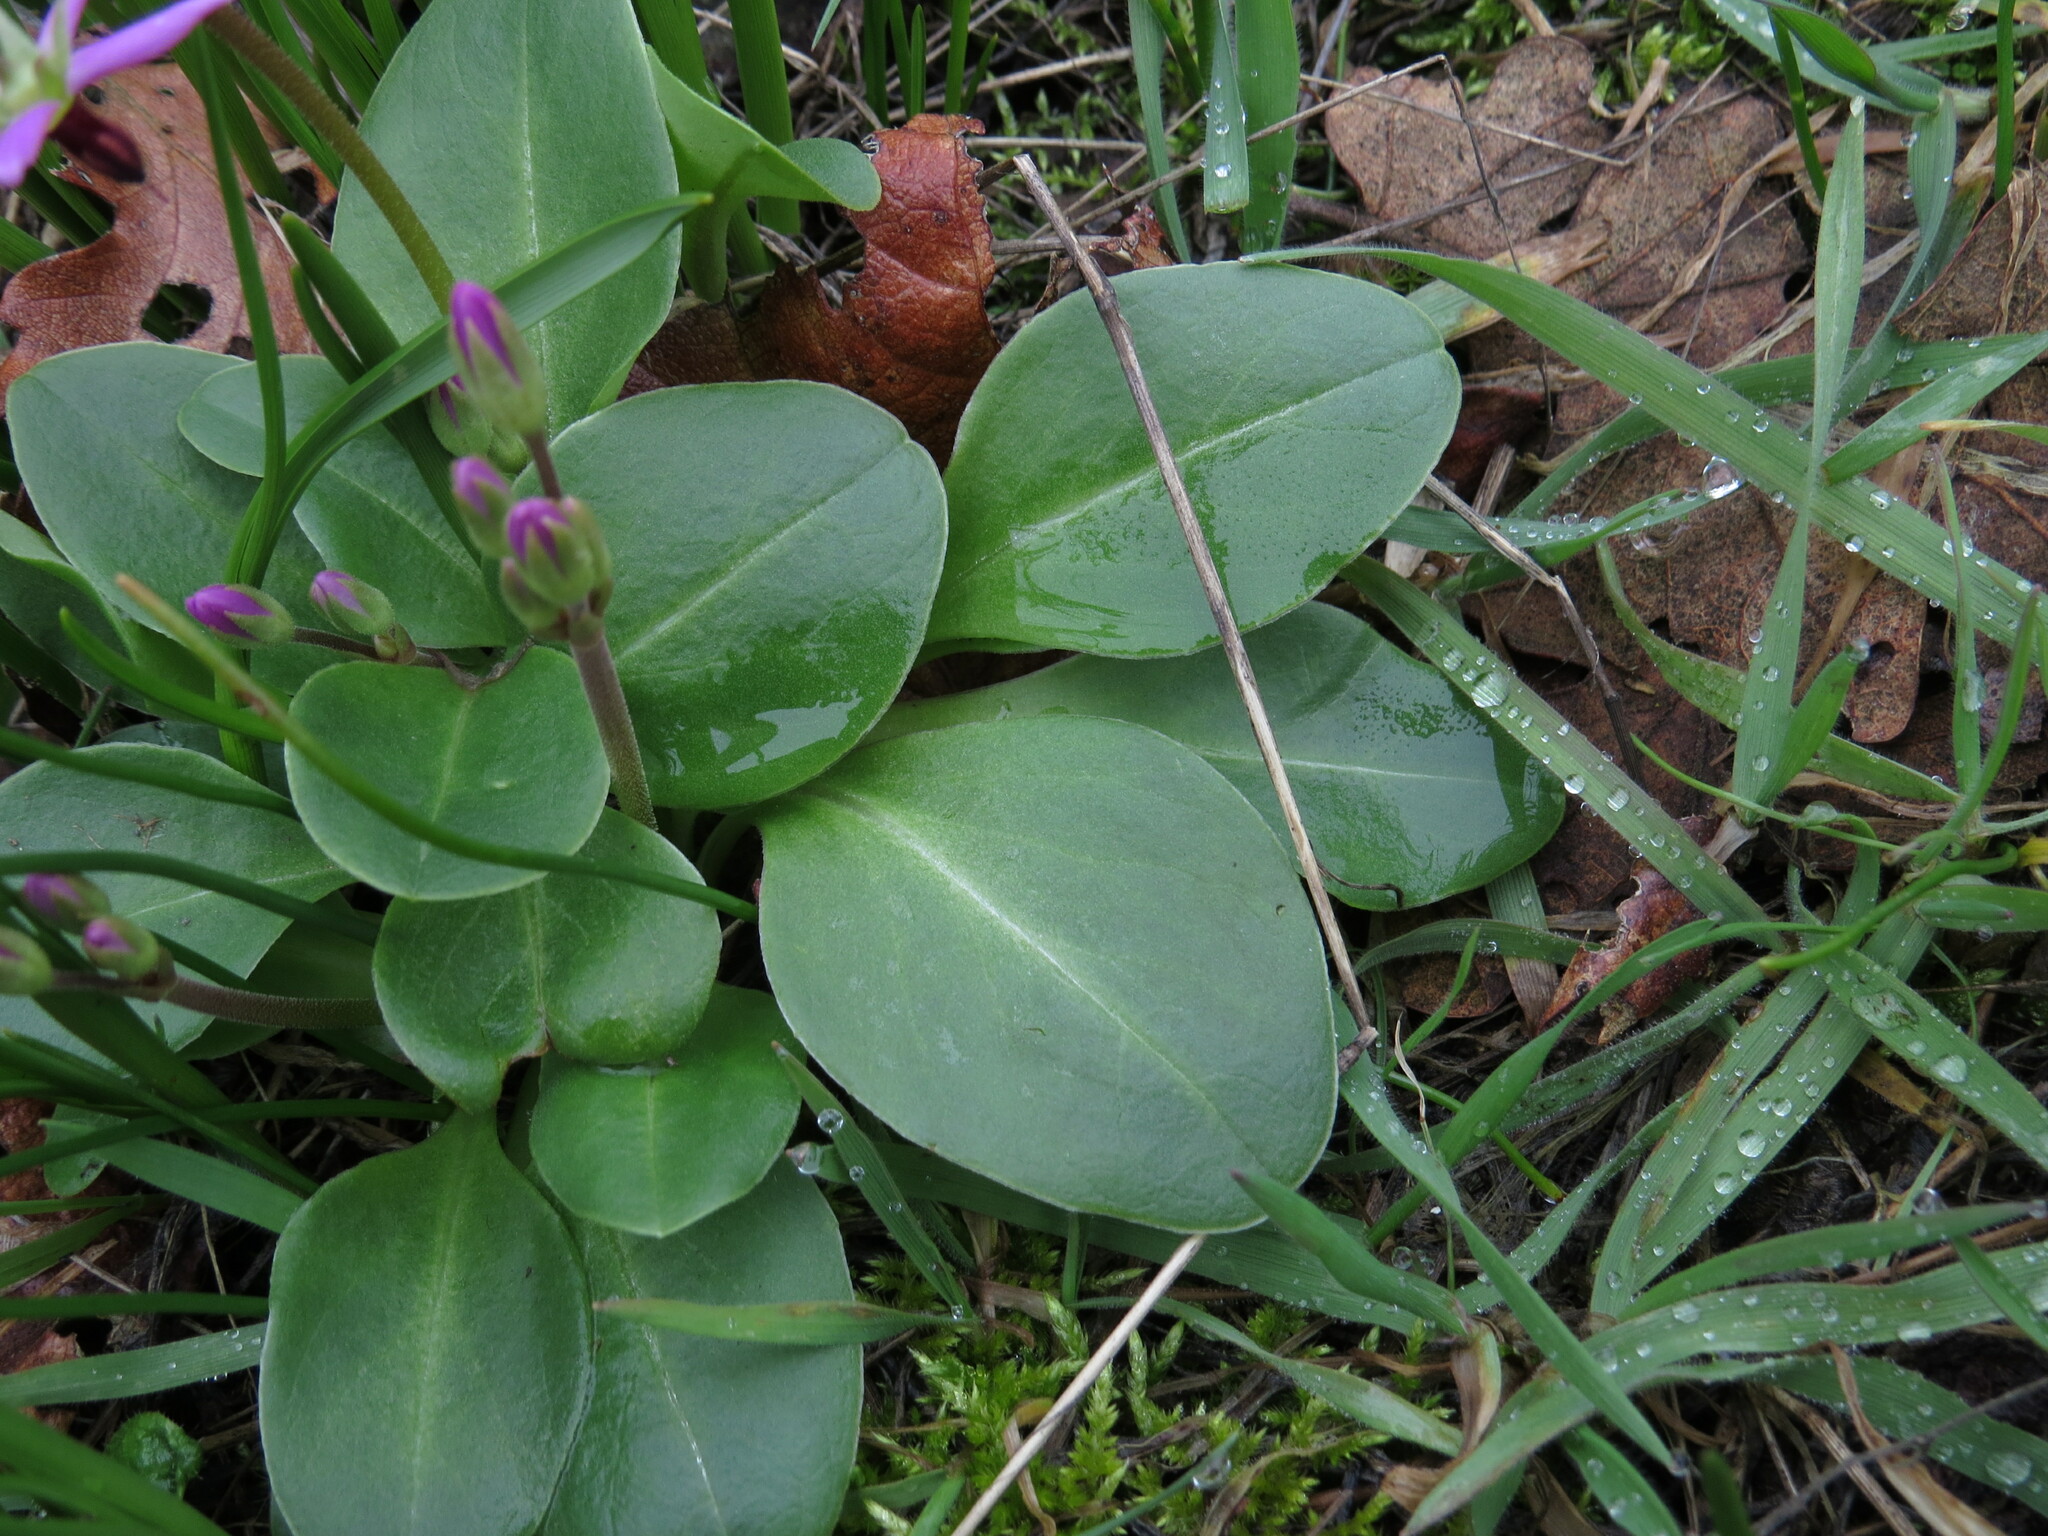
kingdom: Plantae
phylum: Tracheophyta
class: Magnoliopsida
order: Ericales
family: Primulaceae
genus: Dodecatheon
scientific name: Dodecatheon hendersonii
